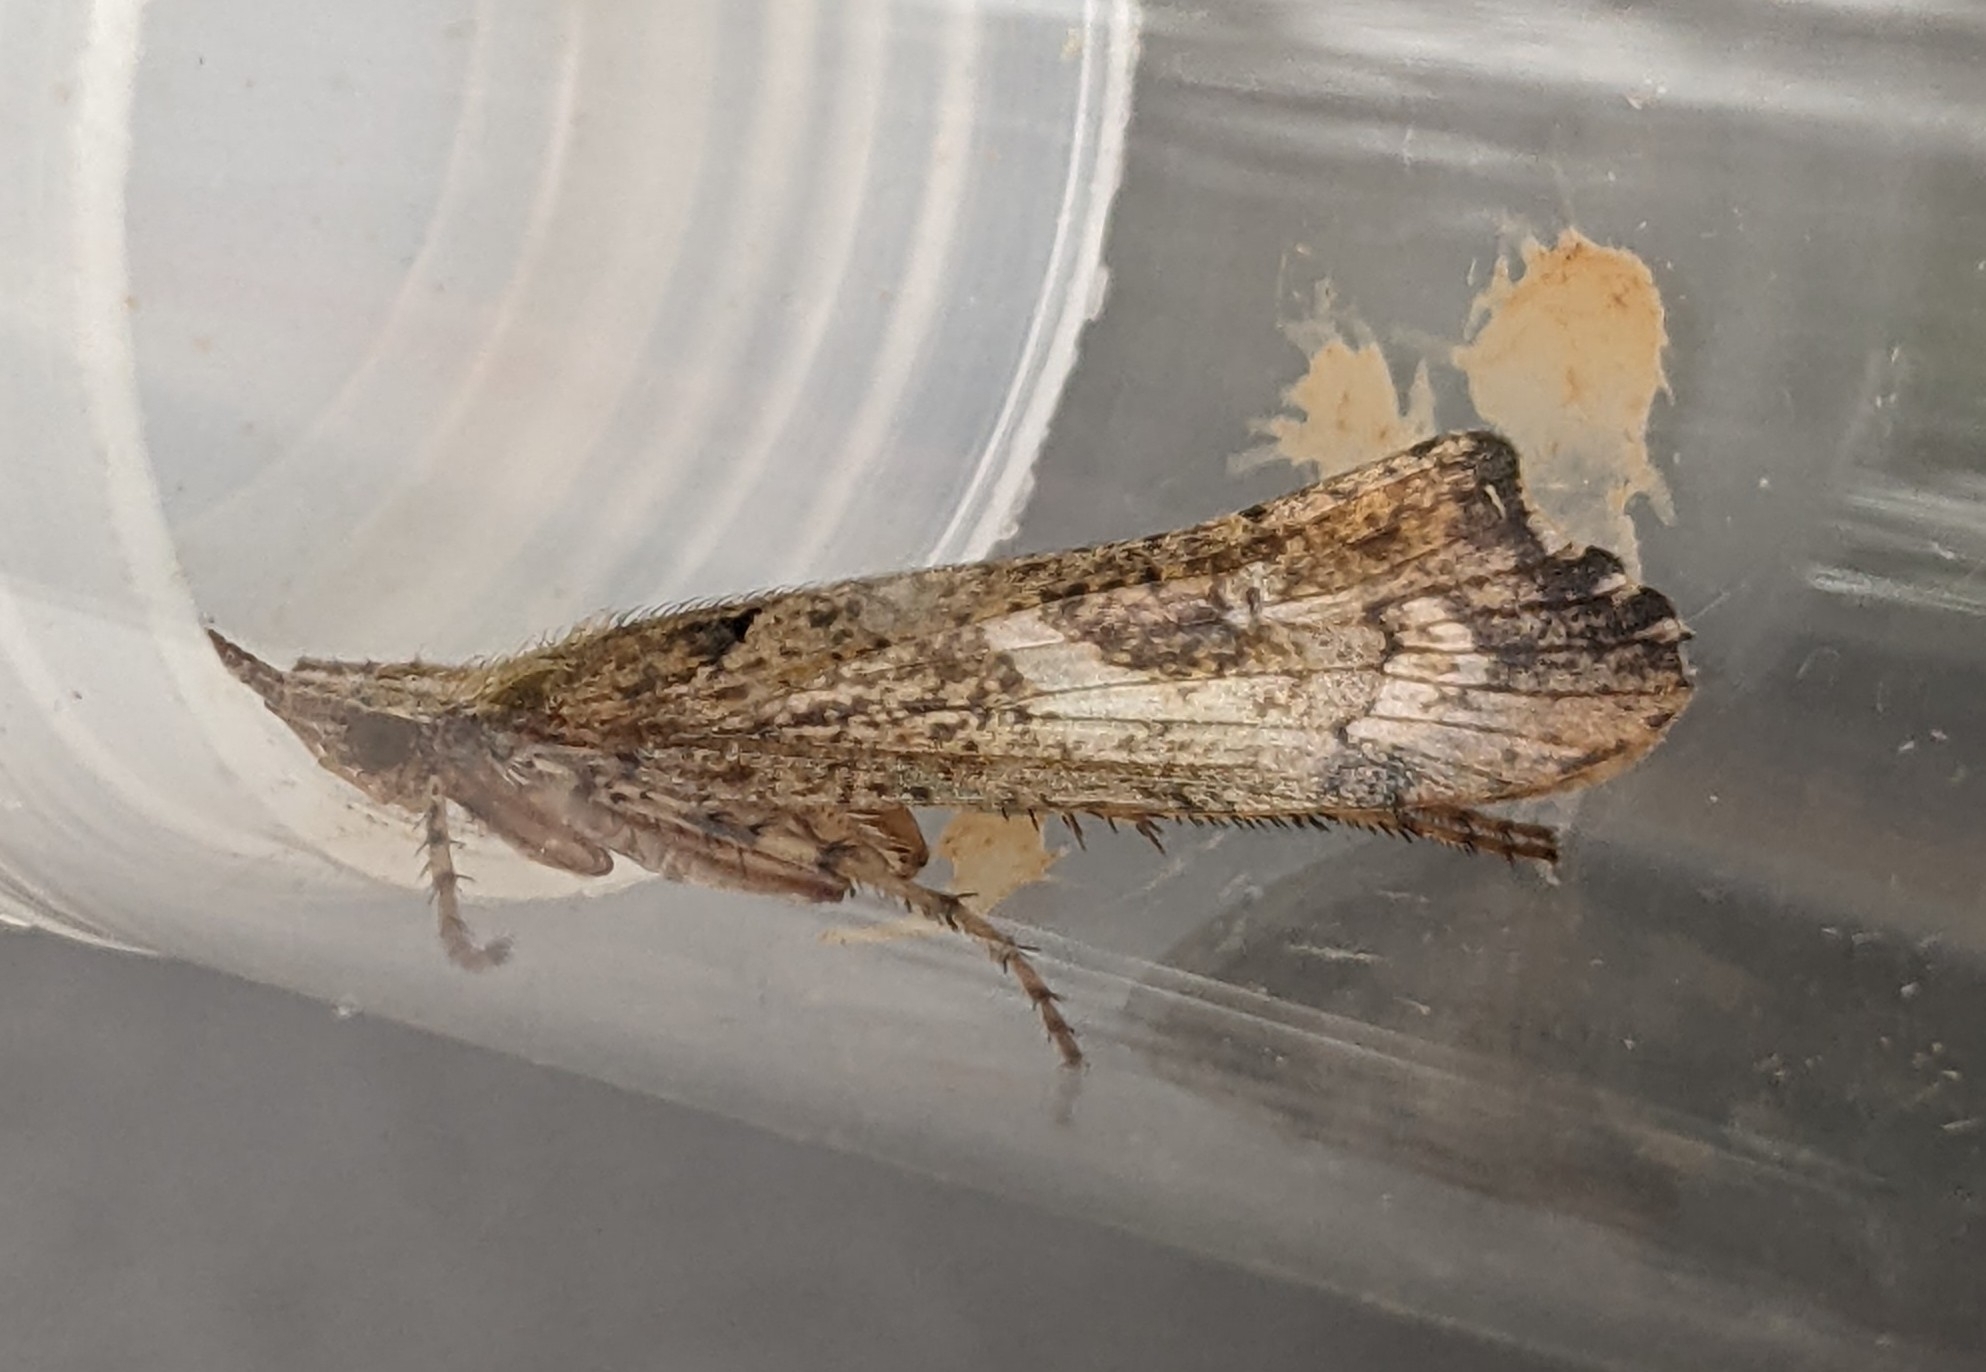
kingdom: Animalia
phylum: Arthropoda
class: Insecta
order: Trichoptera
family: Limnephilidae
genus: Glyphotaelius
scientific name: Glyphotaelius pellucidus
